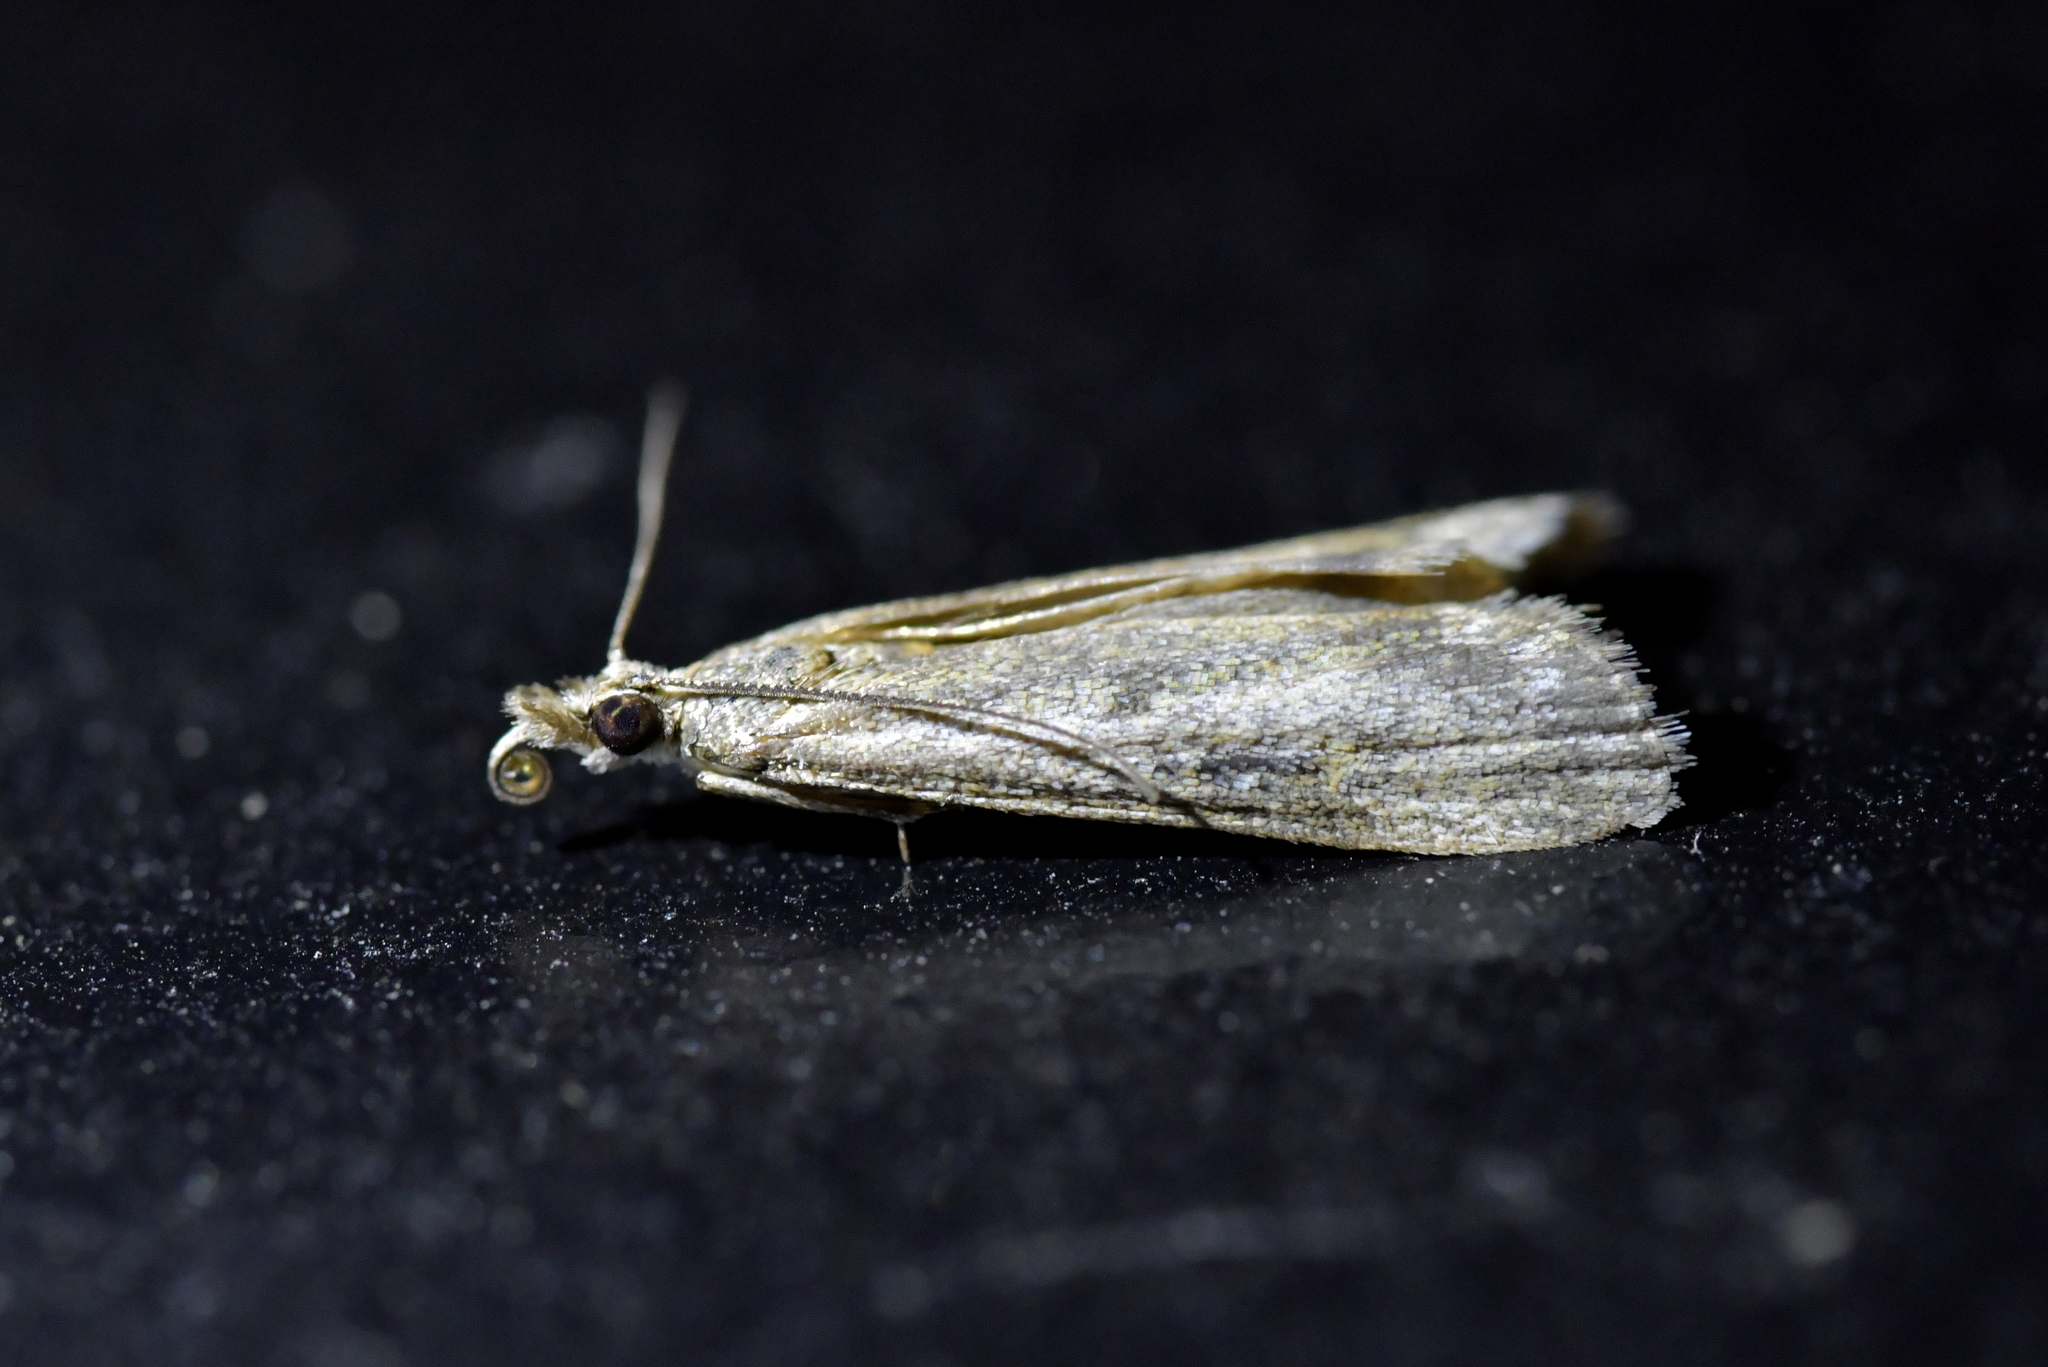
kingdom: Animalia
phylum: Arthropoda
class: Insecta
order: Lepidoptera
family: Crambidae
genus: Eudonia
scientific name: Eudonia leptalea
